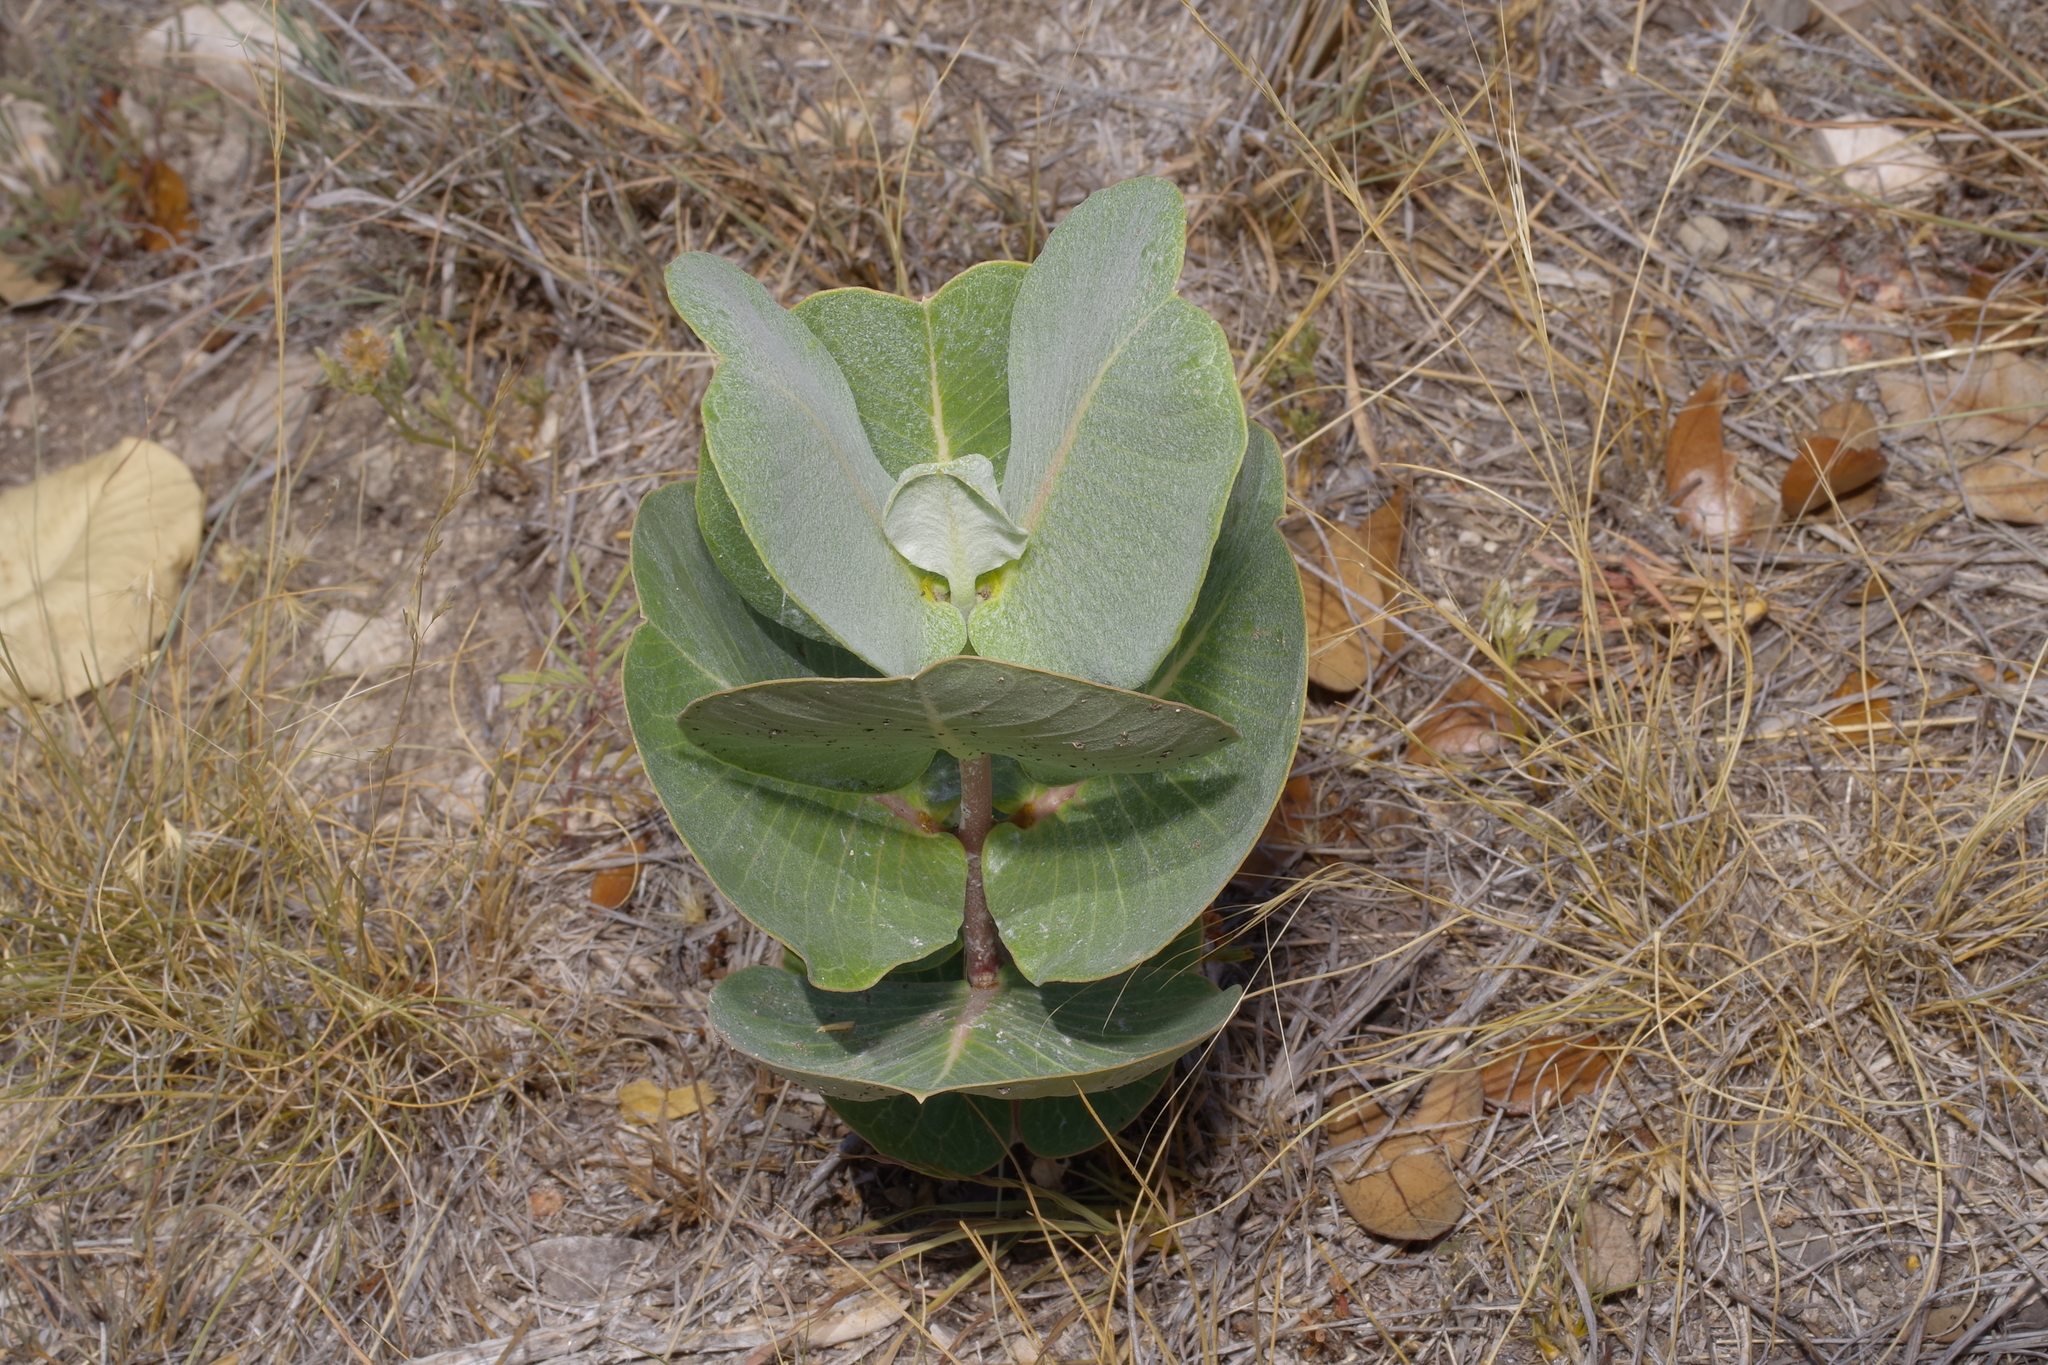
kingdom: Plantae
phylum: Tracheophyta
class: Magnoliopsida
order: Gentianales
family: Apocynaceae
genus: Asclepias
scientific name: Asclepias latifolia
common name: Broadleaf milkweed
